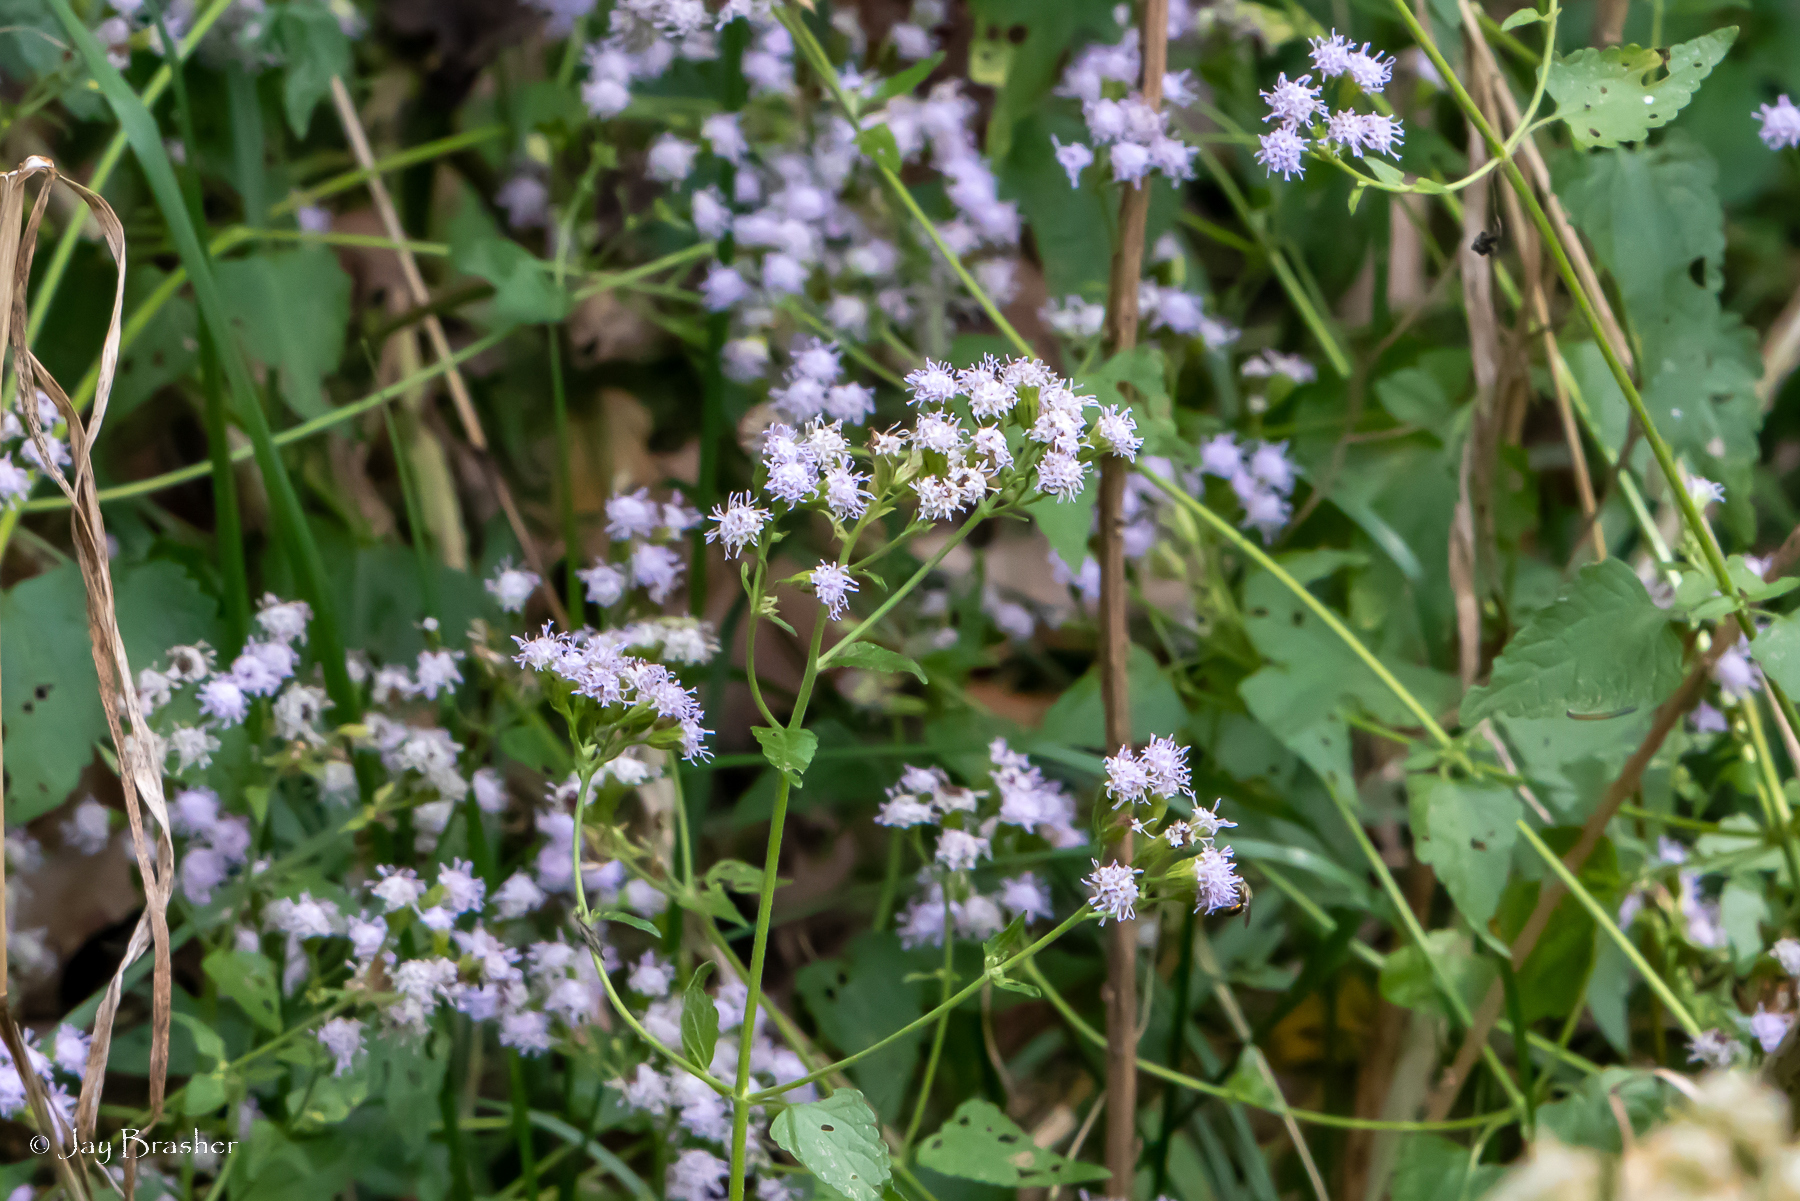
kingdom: Plantae
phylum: Tracheophyta
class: Magnoliopsida
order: Asterales
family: Asteraceae
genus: Fleischmannia
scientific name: Fleischmannia incarnata
